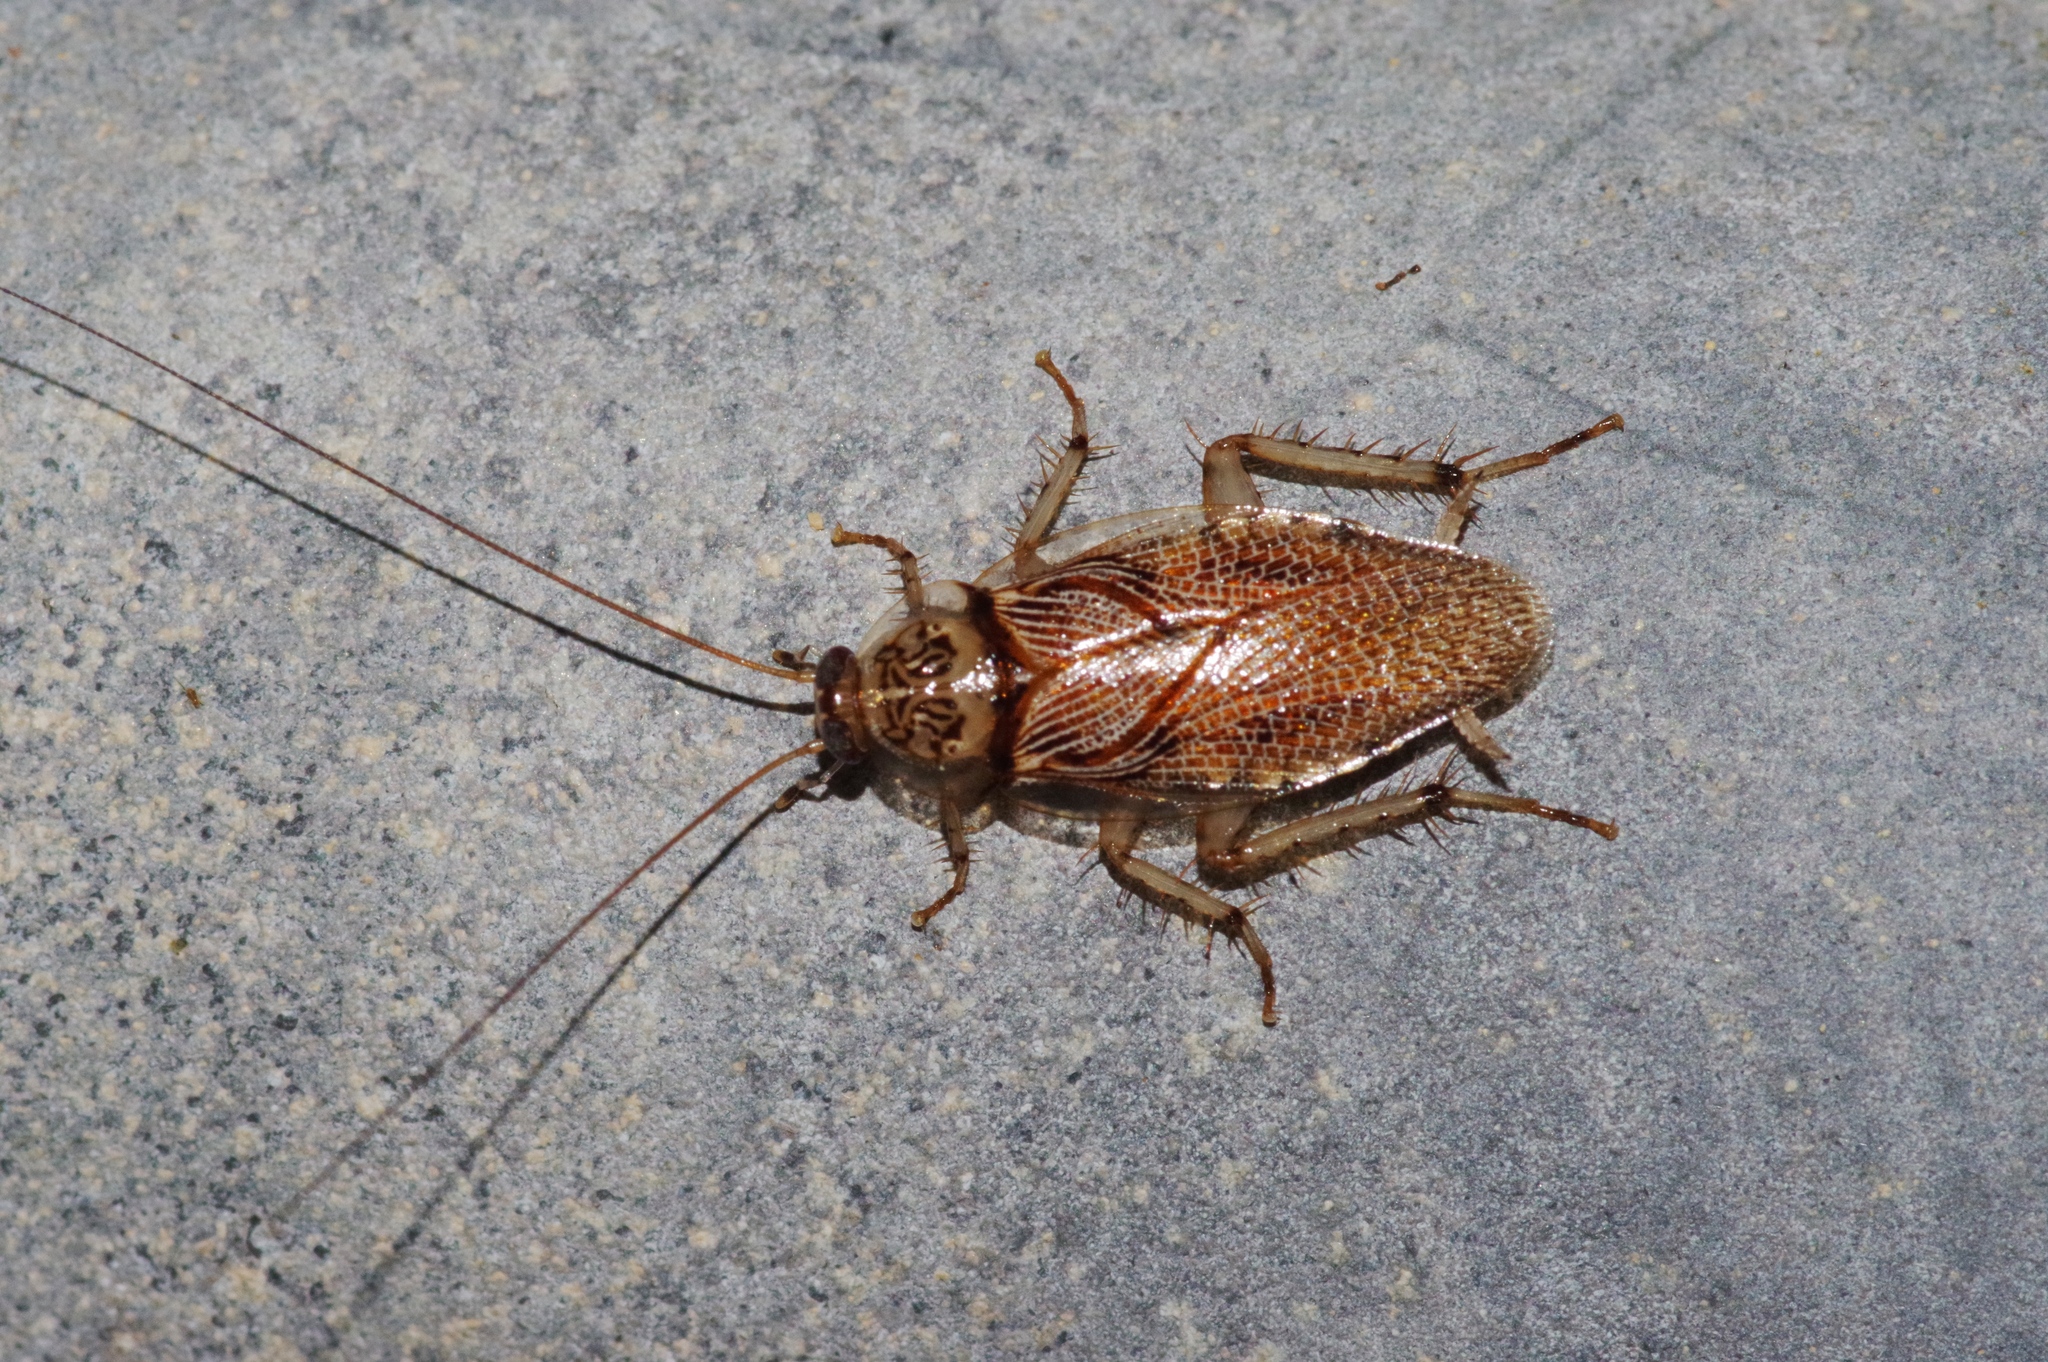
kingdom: Animalia
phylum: Arthropoda
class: Insecta
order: Blattodea
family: Ectobiidae
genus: Balta
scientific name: Balta notulata
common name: Cockroach
